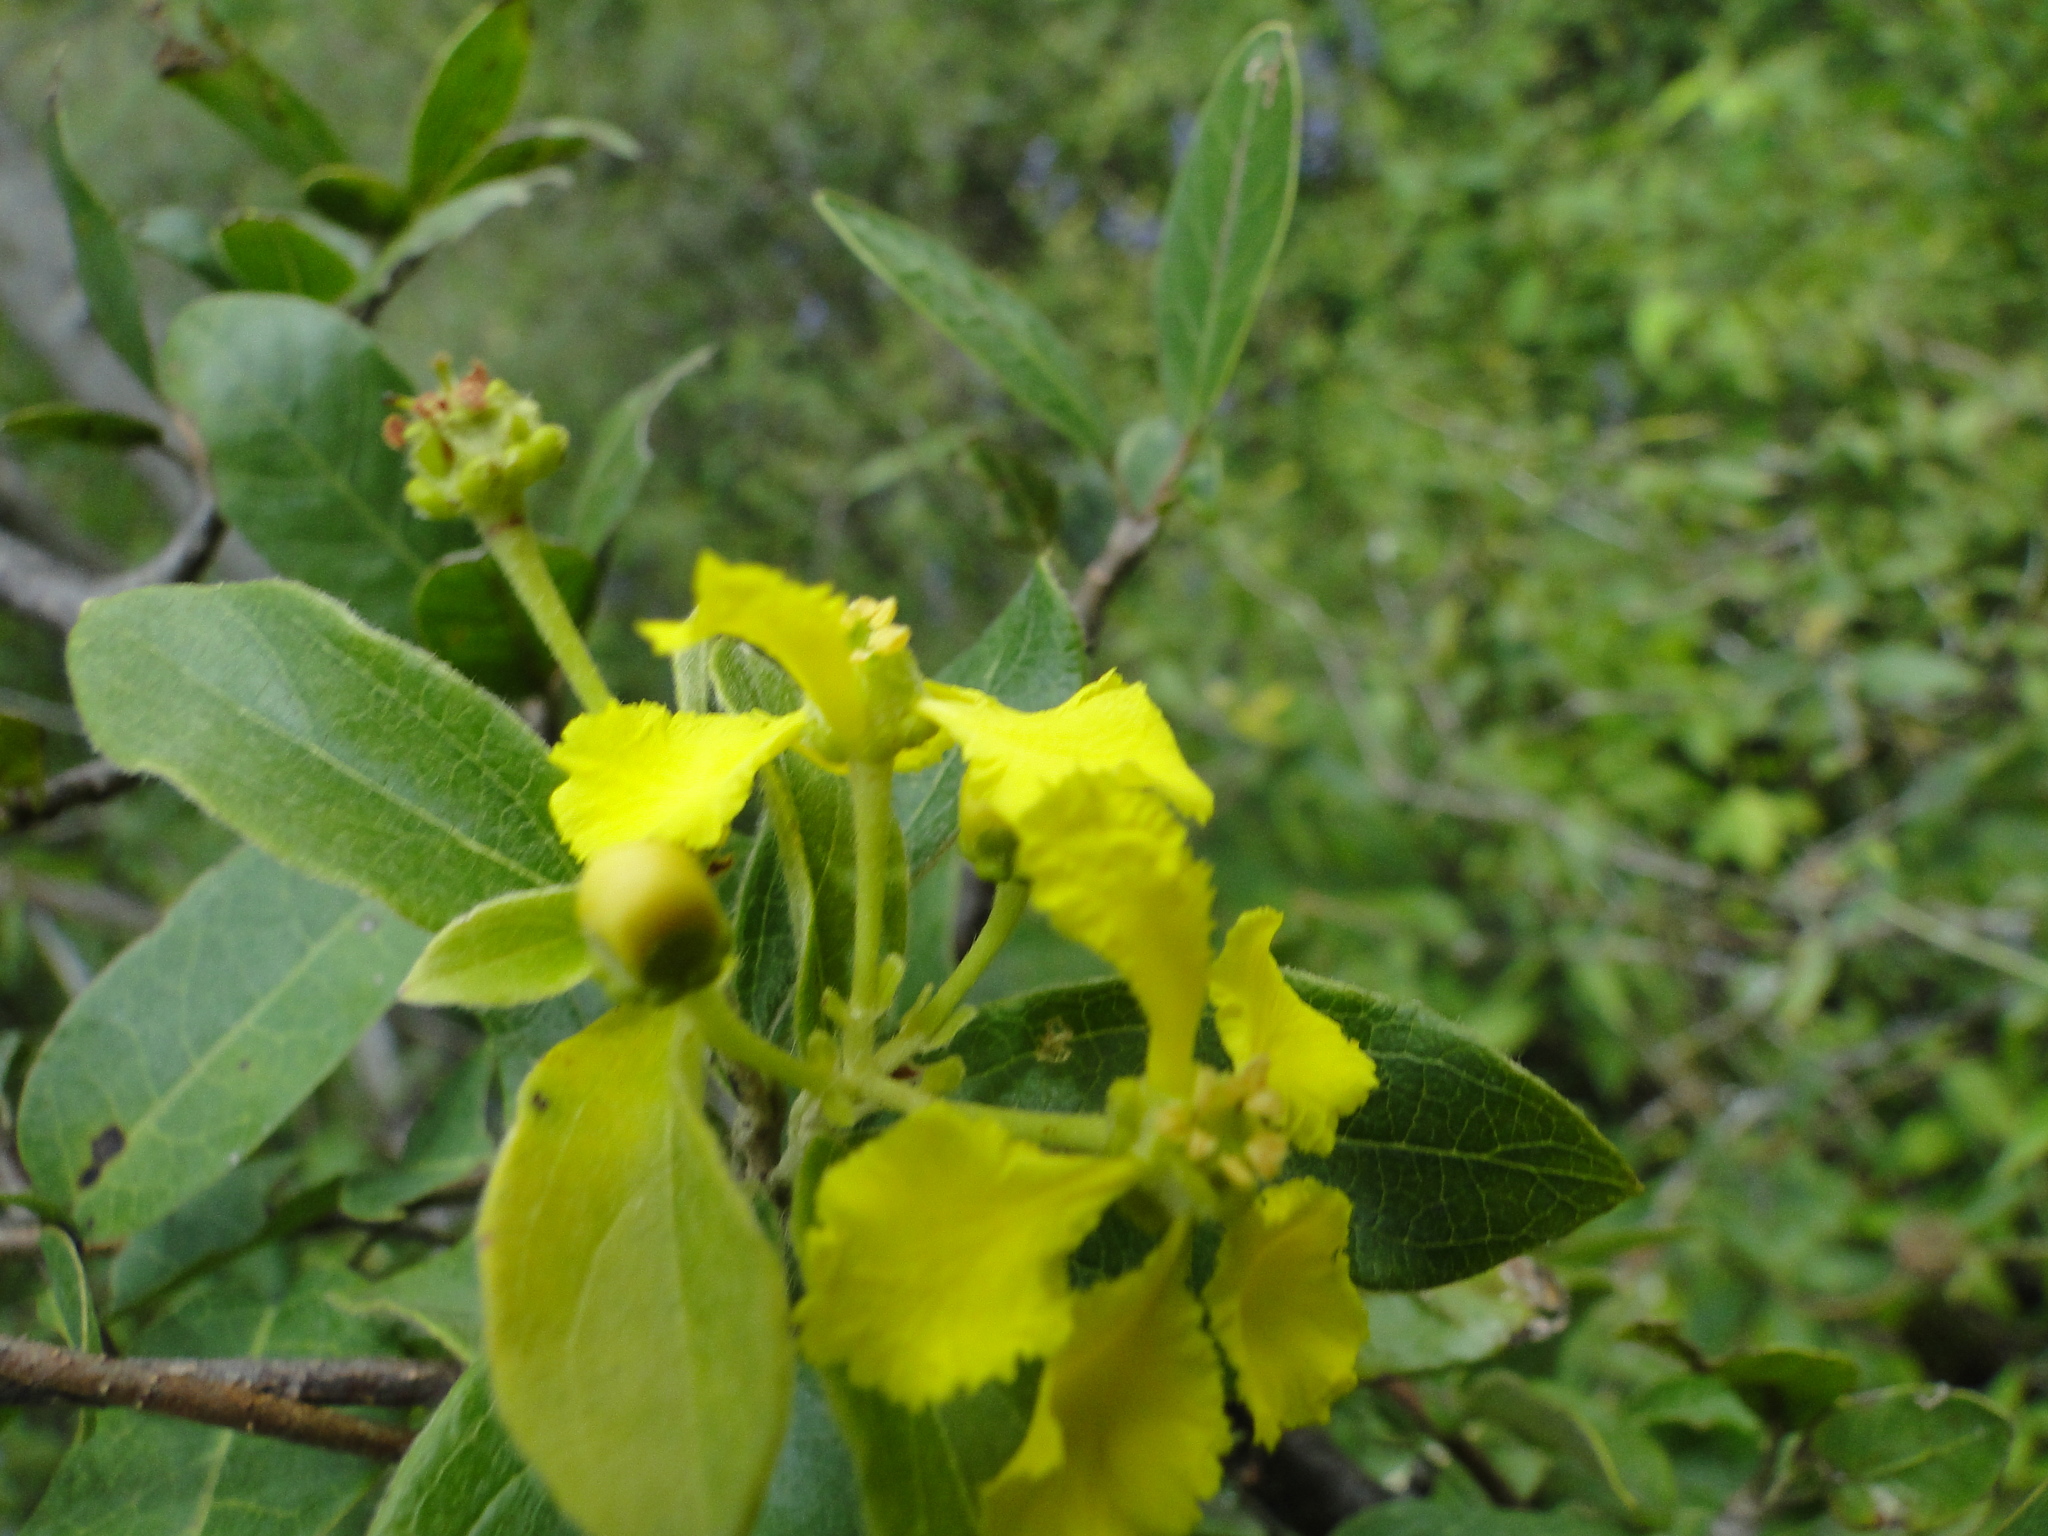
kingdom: Plantae
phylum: Tracheophyta
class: Magnoliopsida
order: Malpighiales
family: Malpighiaceae
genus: Callaeum
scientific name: Callaeum macropterum
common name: Mexican butterfly-vine
